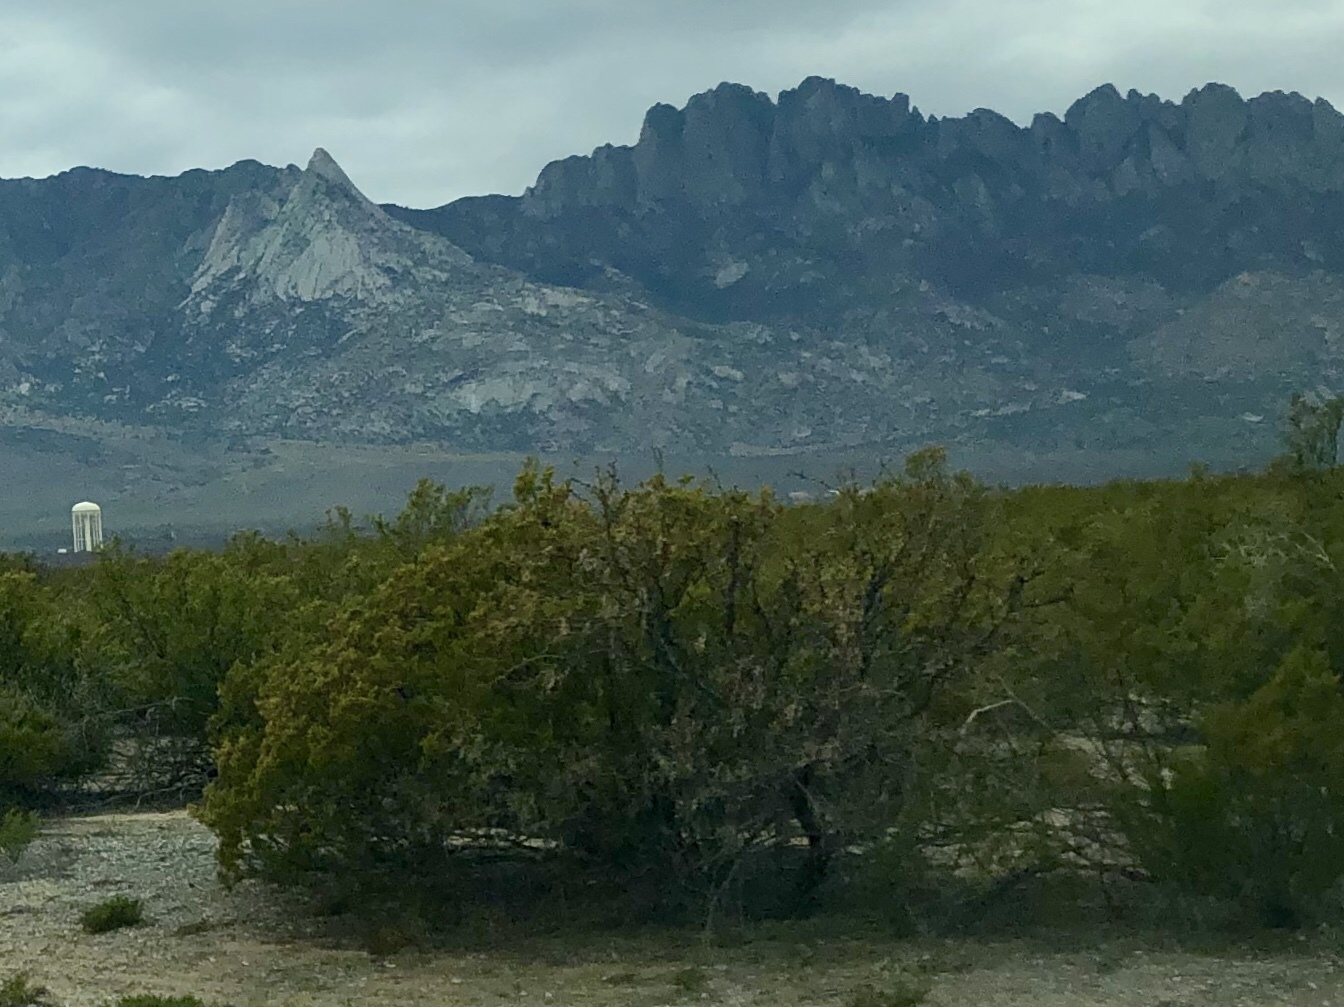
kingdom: Plantae
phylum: Tracheophyta
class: Magnoliopsida
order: Zygophyllales
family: Zygophyllaceae
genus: Larrea
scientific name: Larrea tridentata
